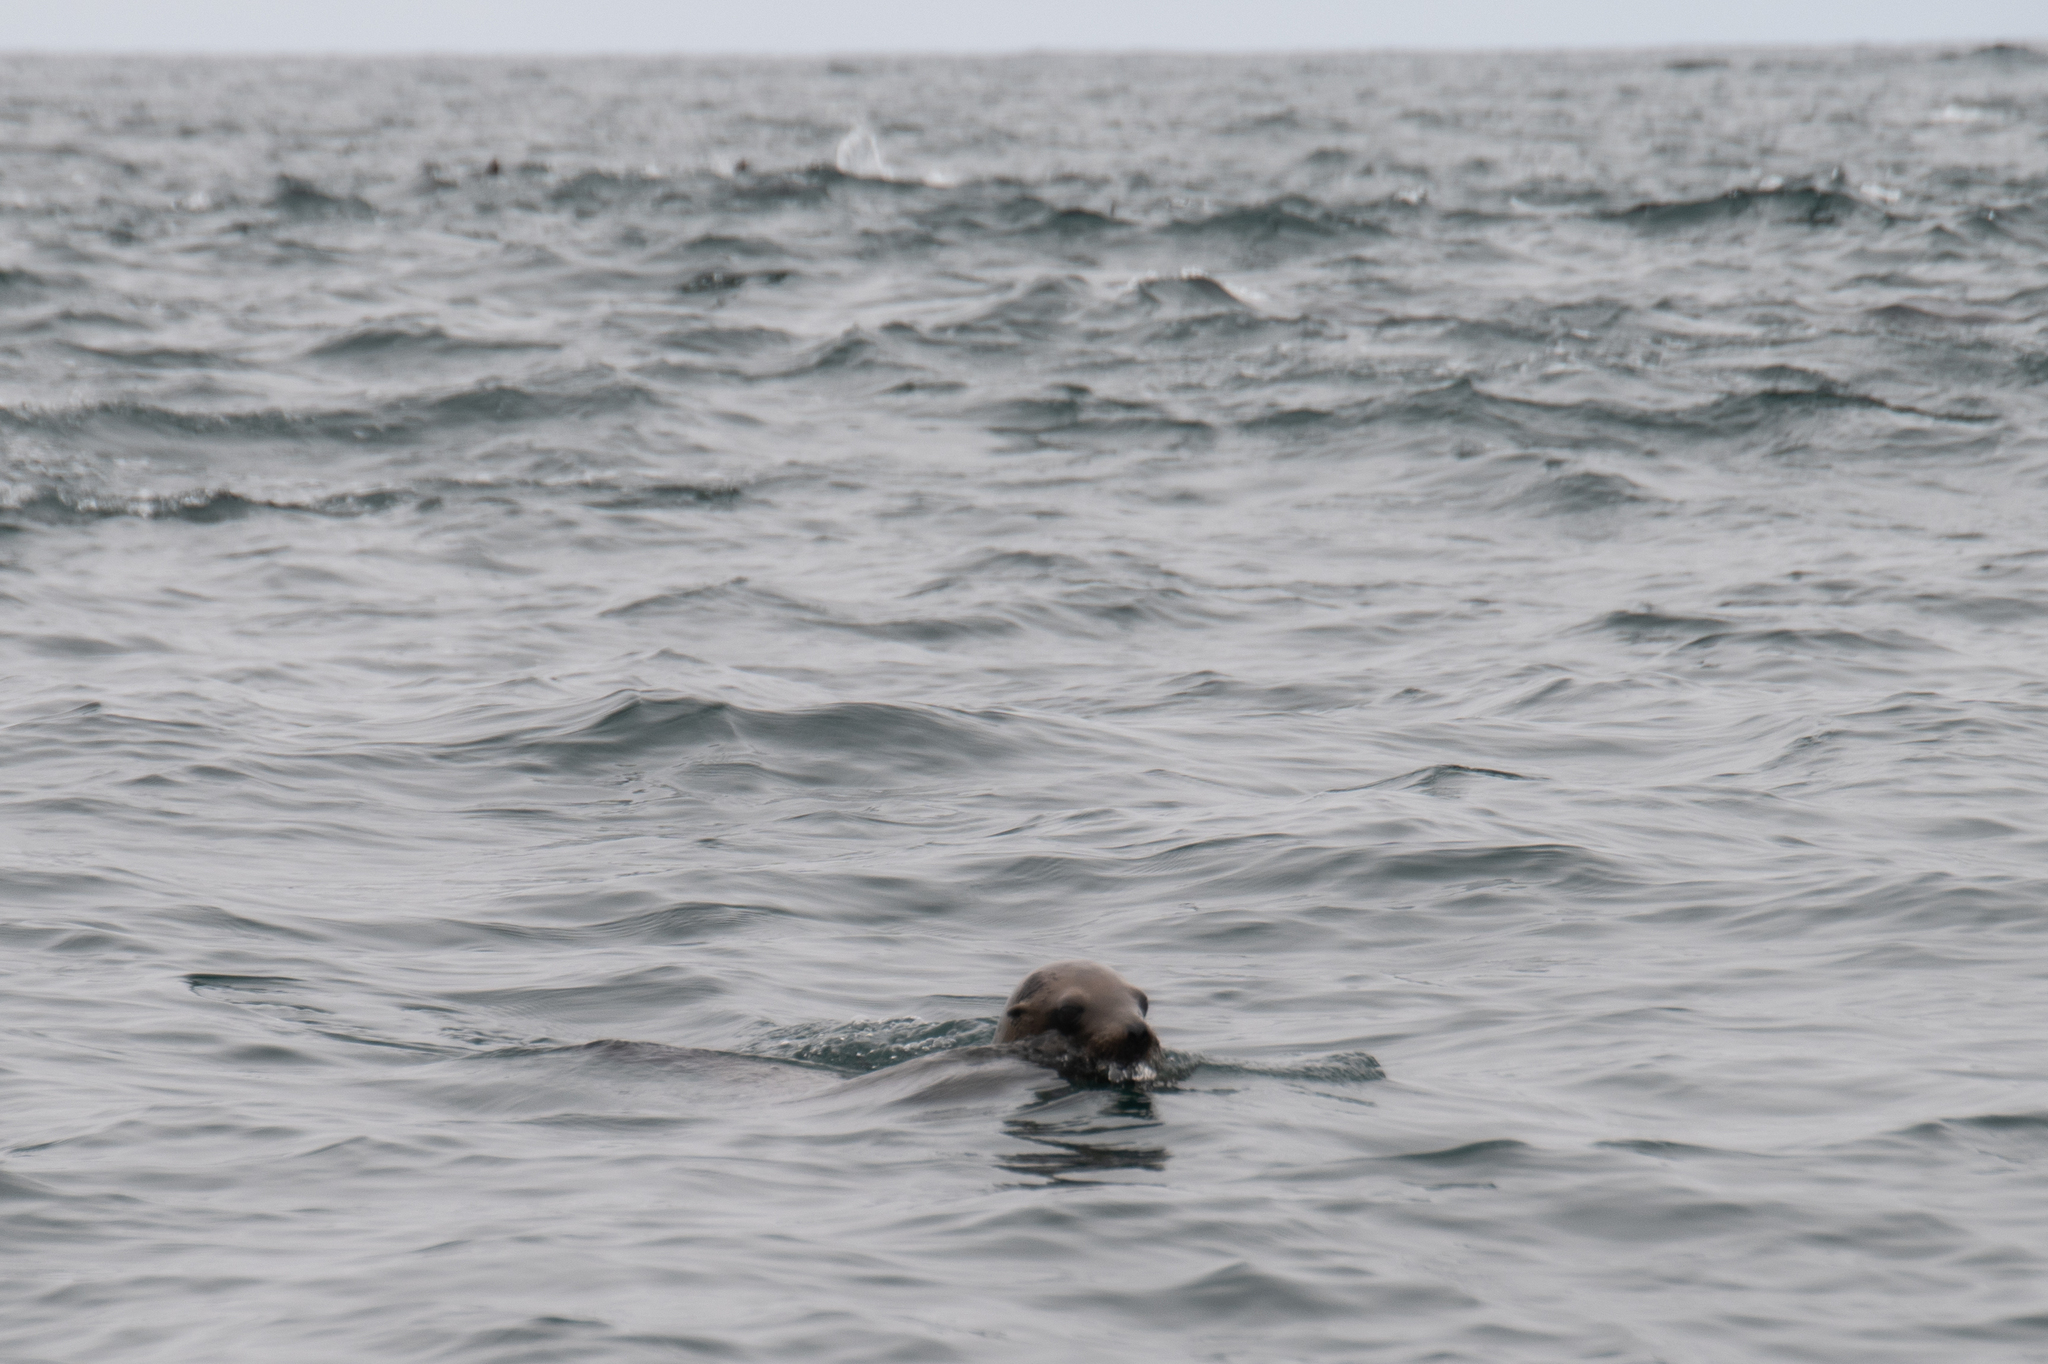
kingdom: Animalia
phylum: Chordata
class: Mammalia
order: Carnivora
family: Otariidae
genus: Zalophus
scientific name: Zalophus californianus
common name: California sea lion
